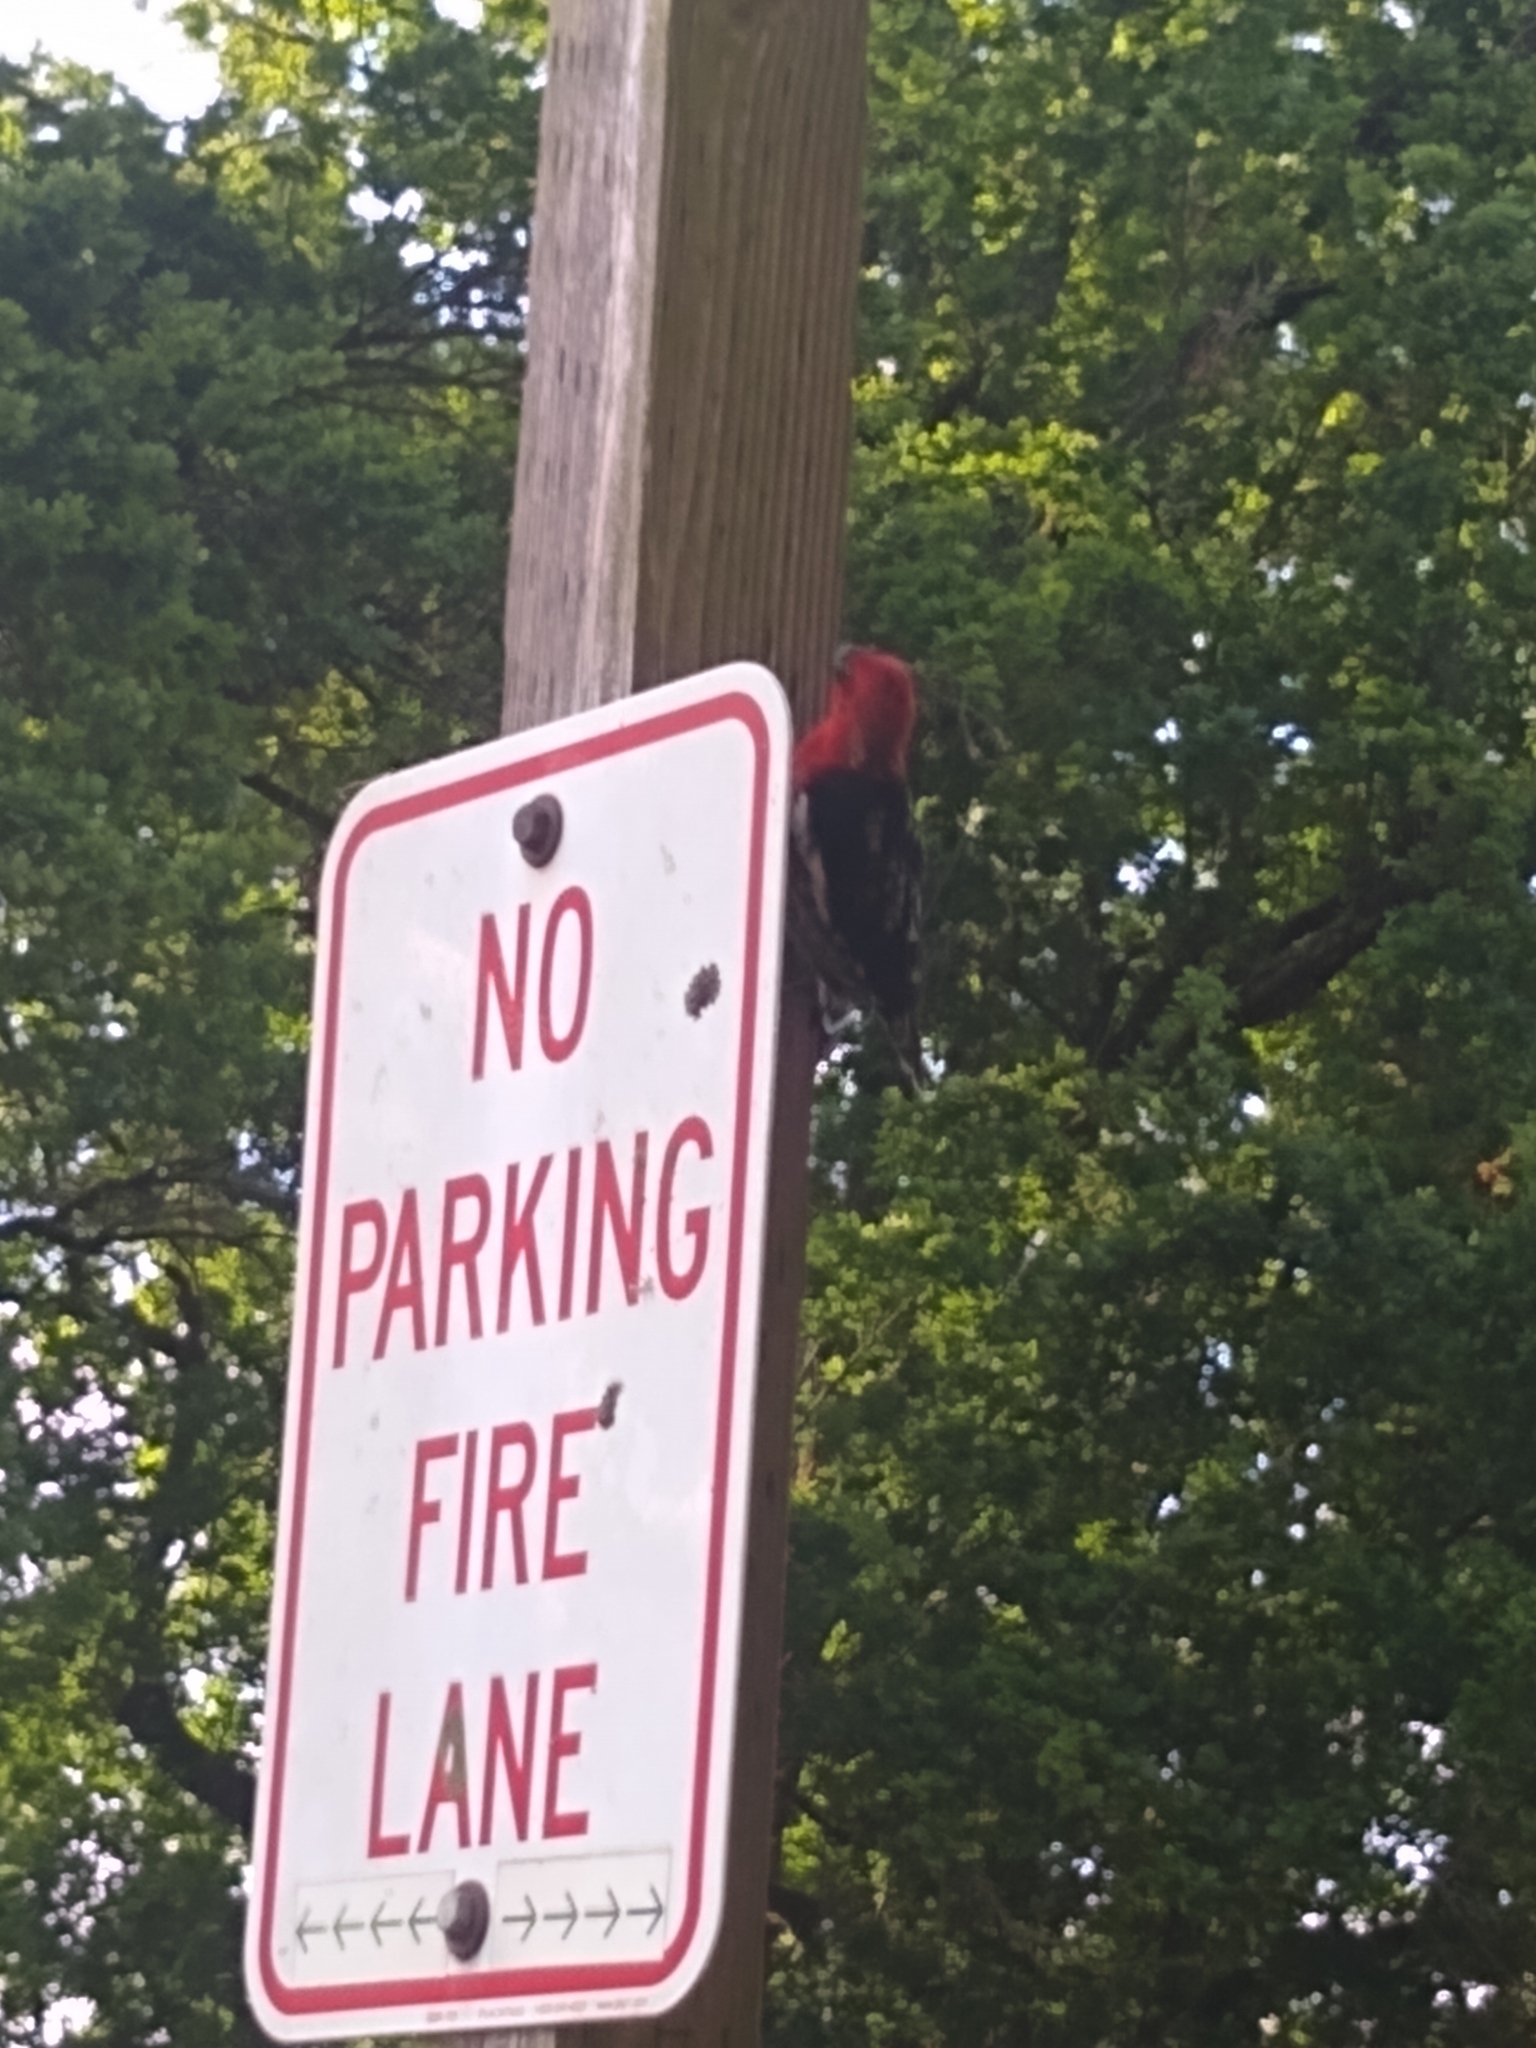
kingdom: Animalia
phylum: Chordata
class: Aves
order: Piciformes
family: Picidae
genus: Sphyrapicus
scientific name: Sphyrapicus ruber
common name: Red-breasted sapsucker
